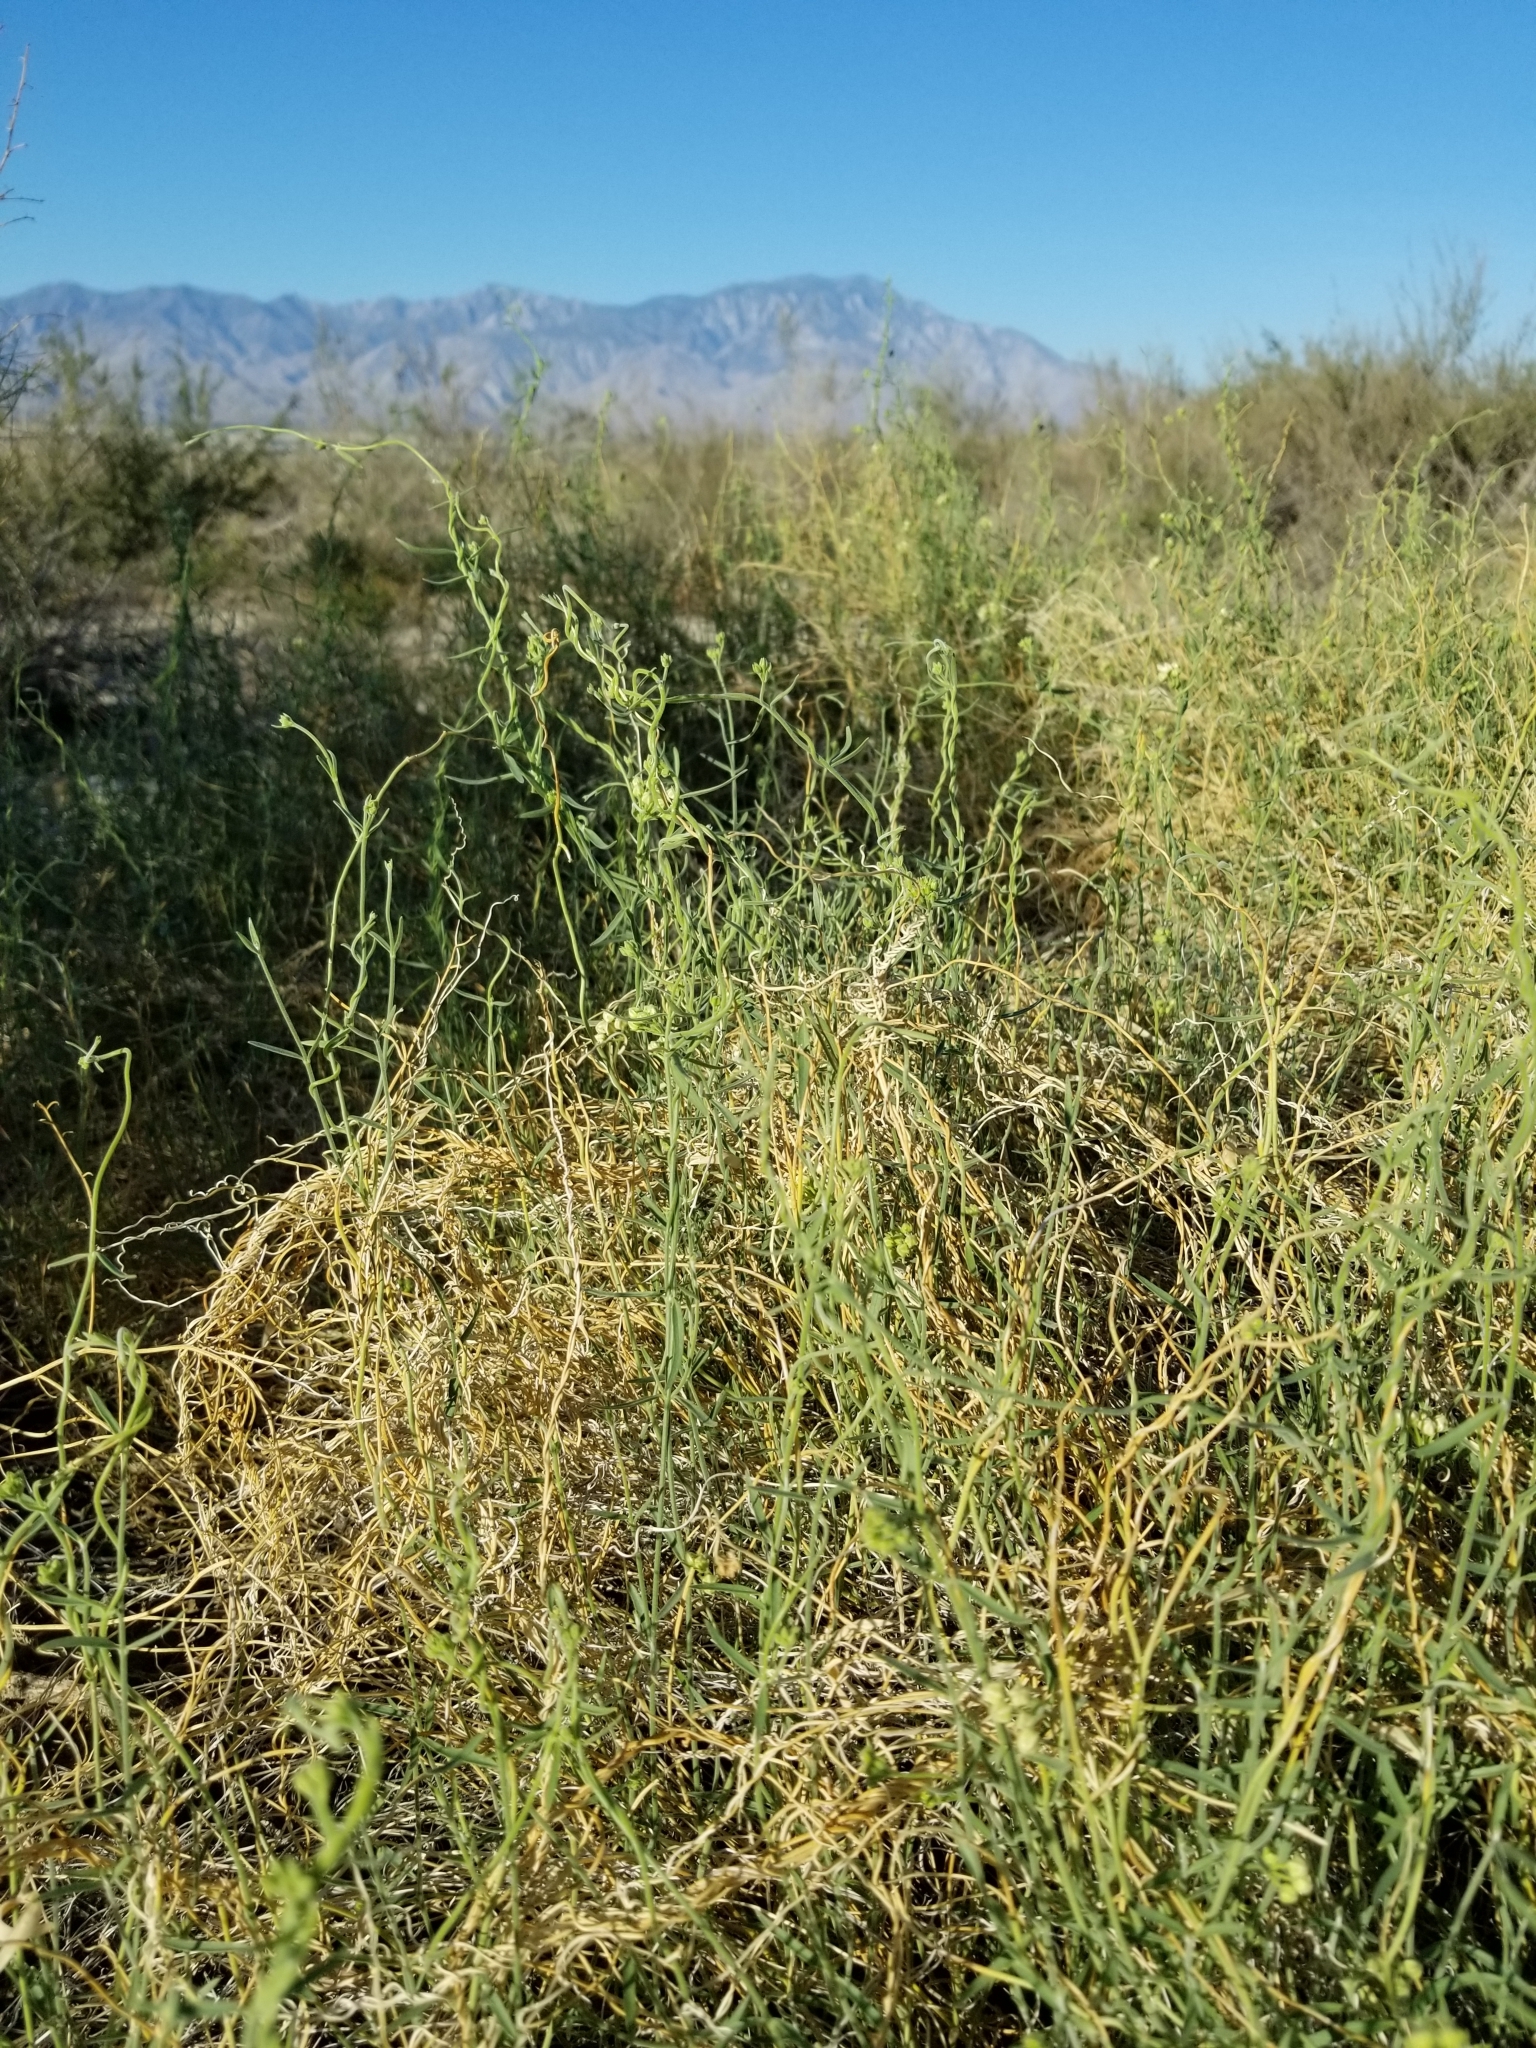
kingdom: Plantae
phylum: Tracheophyta
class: Magnoliopsida
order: Gentianales
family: Apocynaceae
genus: Funastrum
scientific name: Funastrum hirtellum
